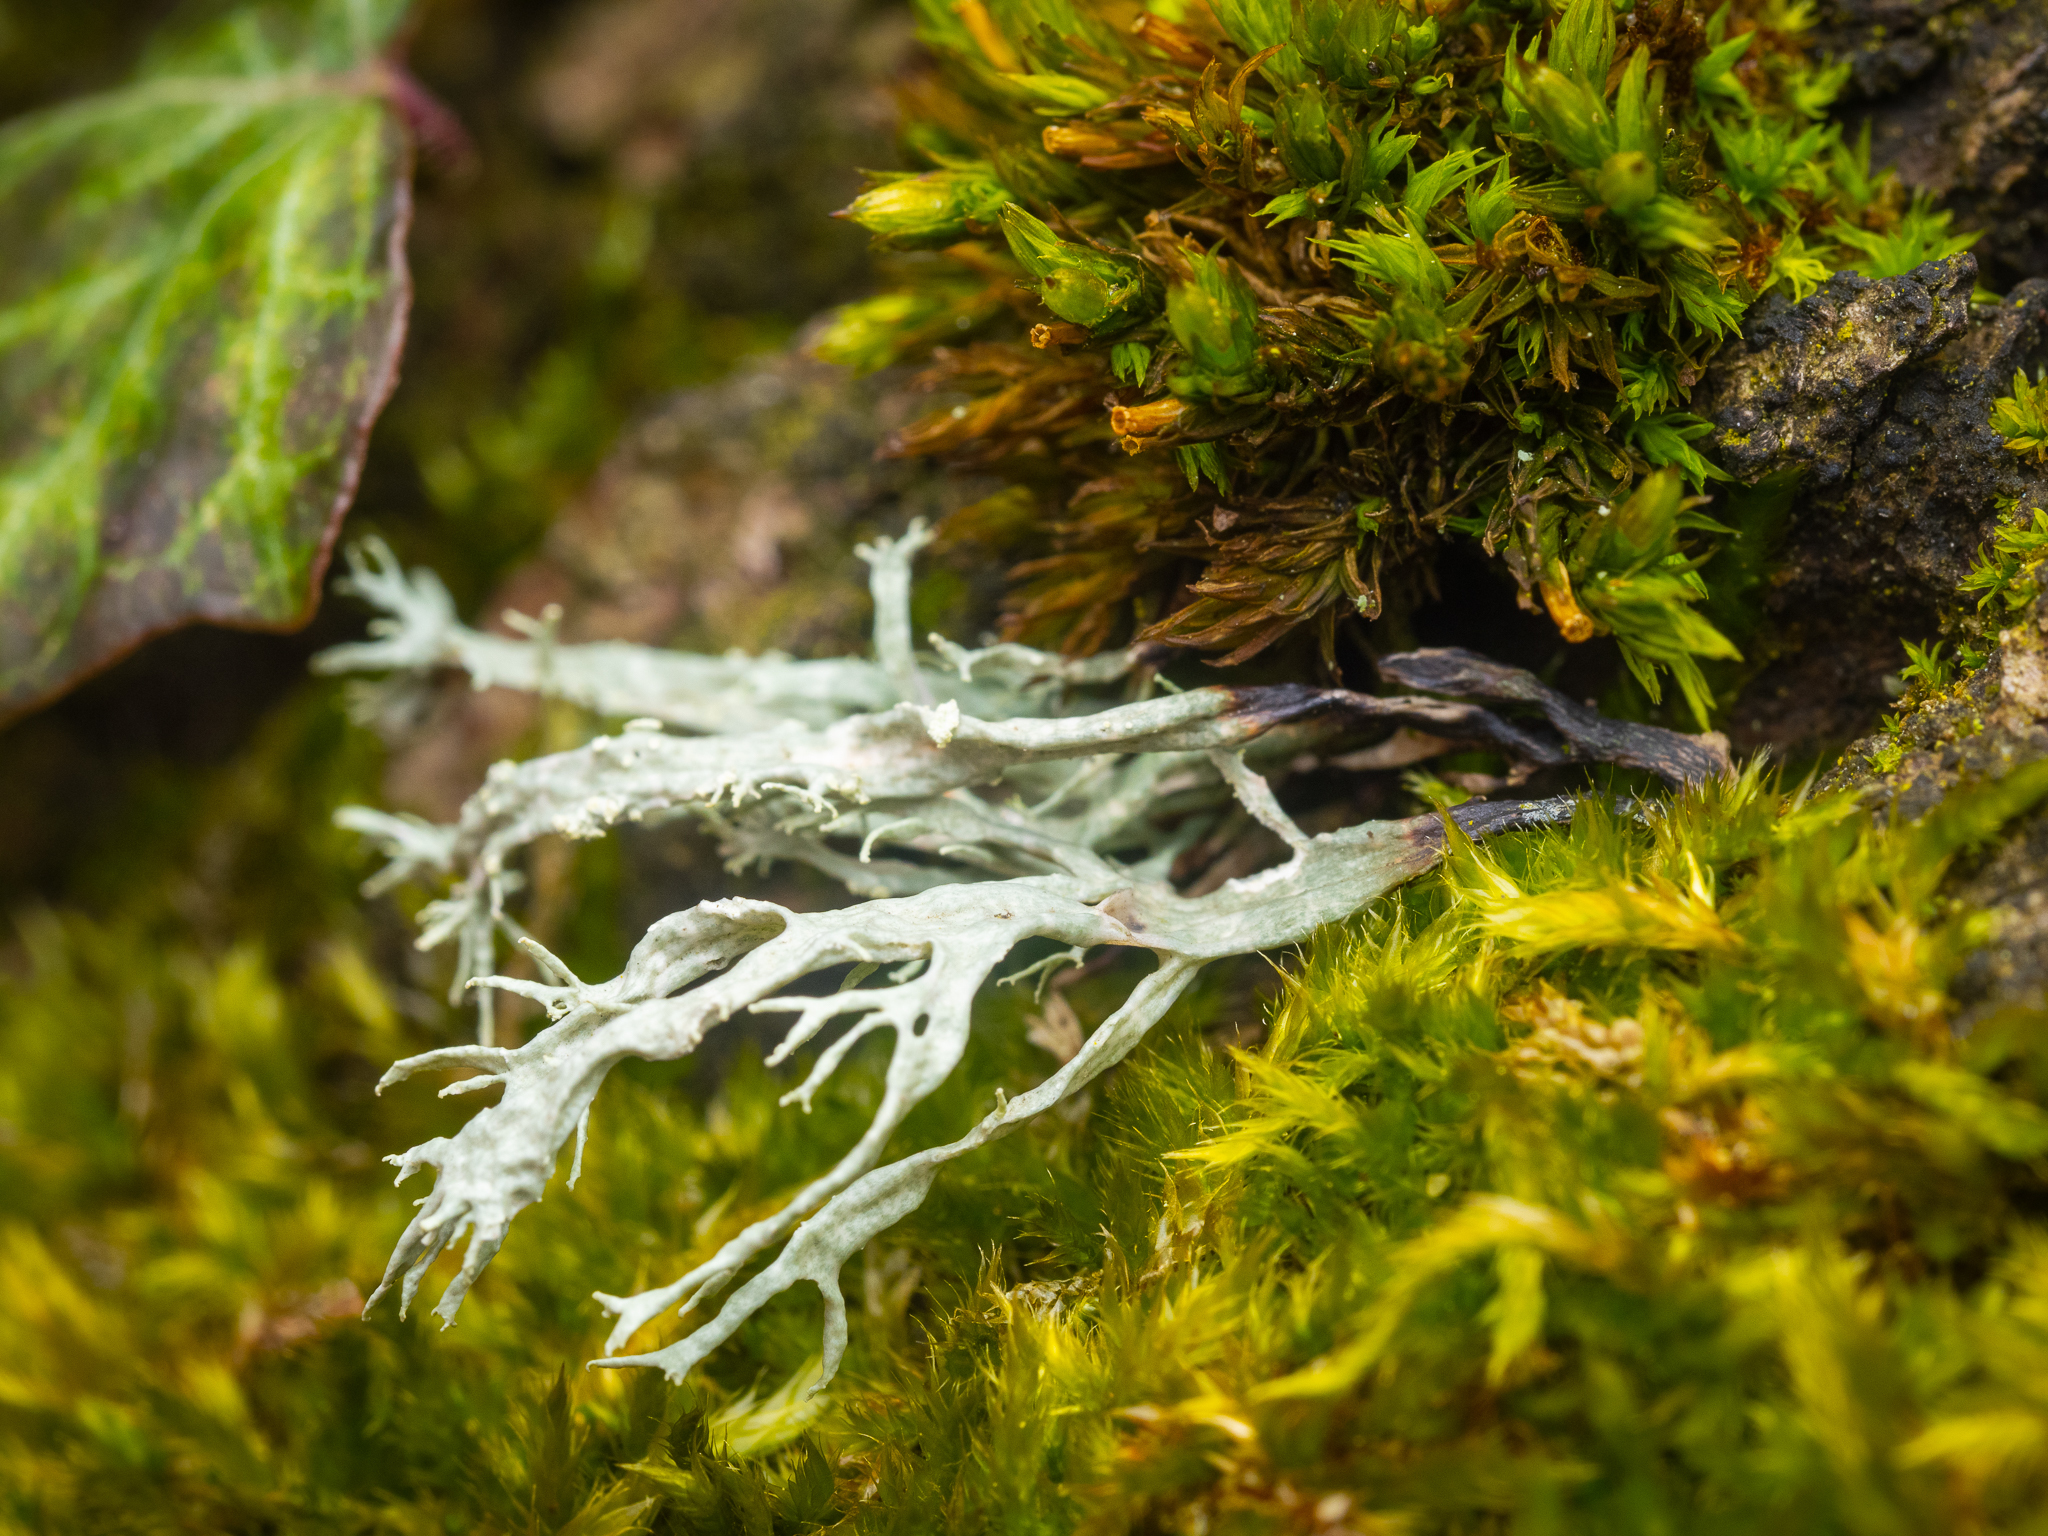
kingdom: Fungi
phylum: Ascomycota
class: Lecanoromycetes
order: Lecanorales
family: Ramalinaceae
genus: Ramalina
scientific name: Ramalina farinacea
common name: Farinose cartilage lichen
